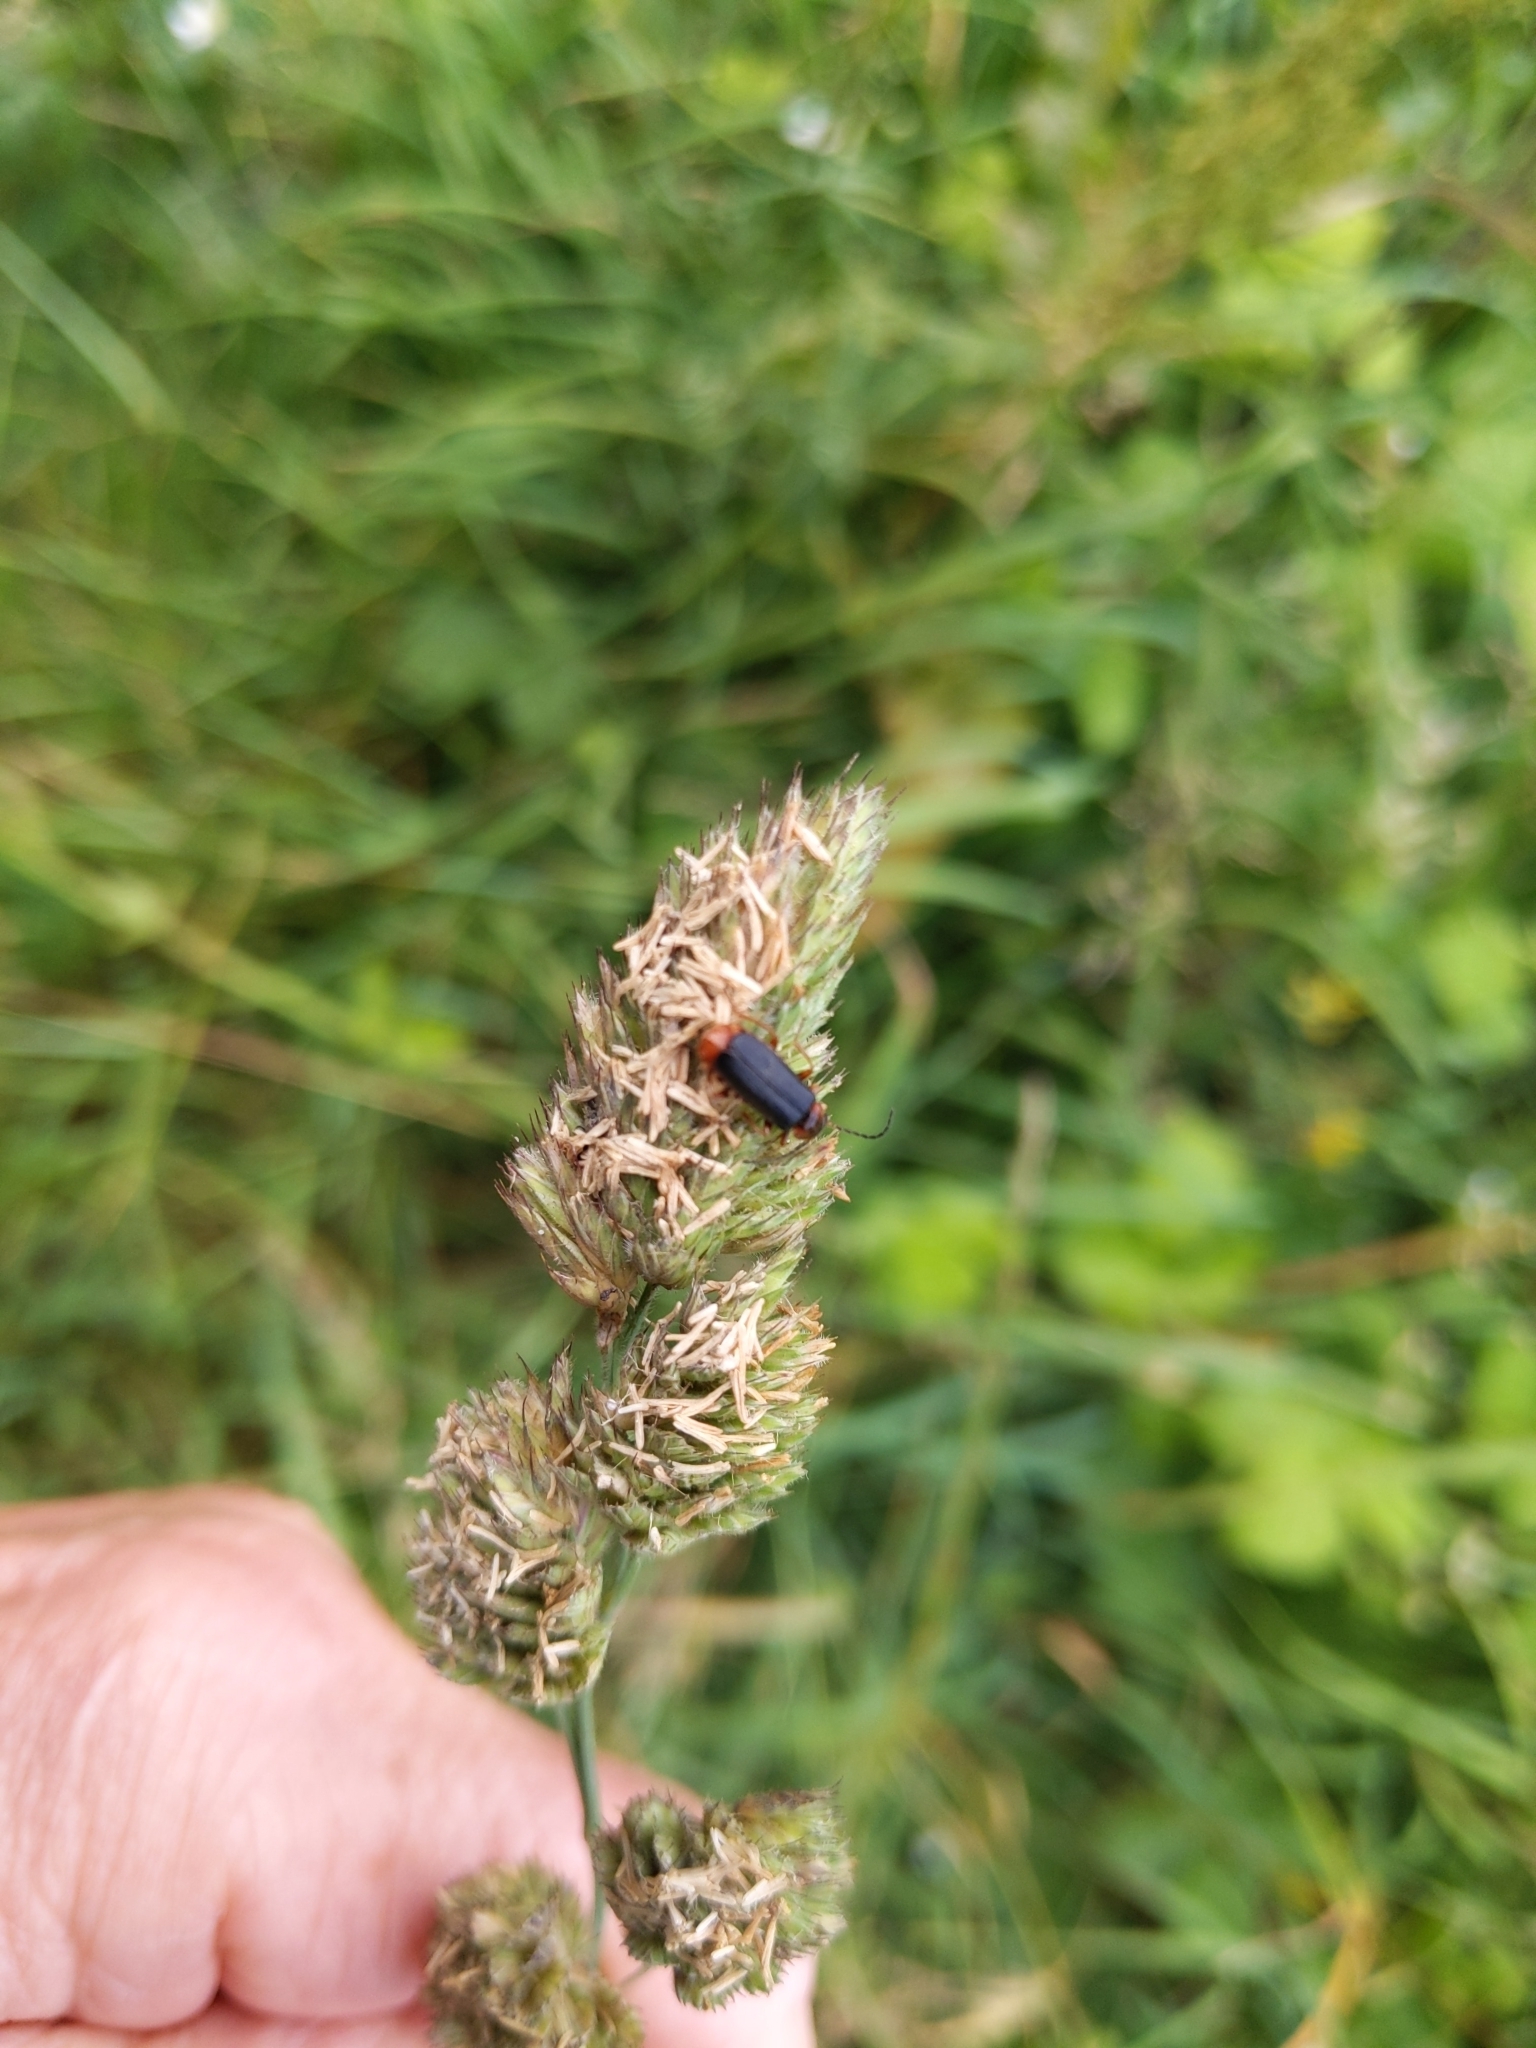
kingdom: Animalia
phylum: Arthropoda
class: Insecta
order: Coleoptera
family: Cantharidae
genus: Cantharis
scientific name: Cantharis flavilabris
